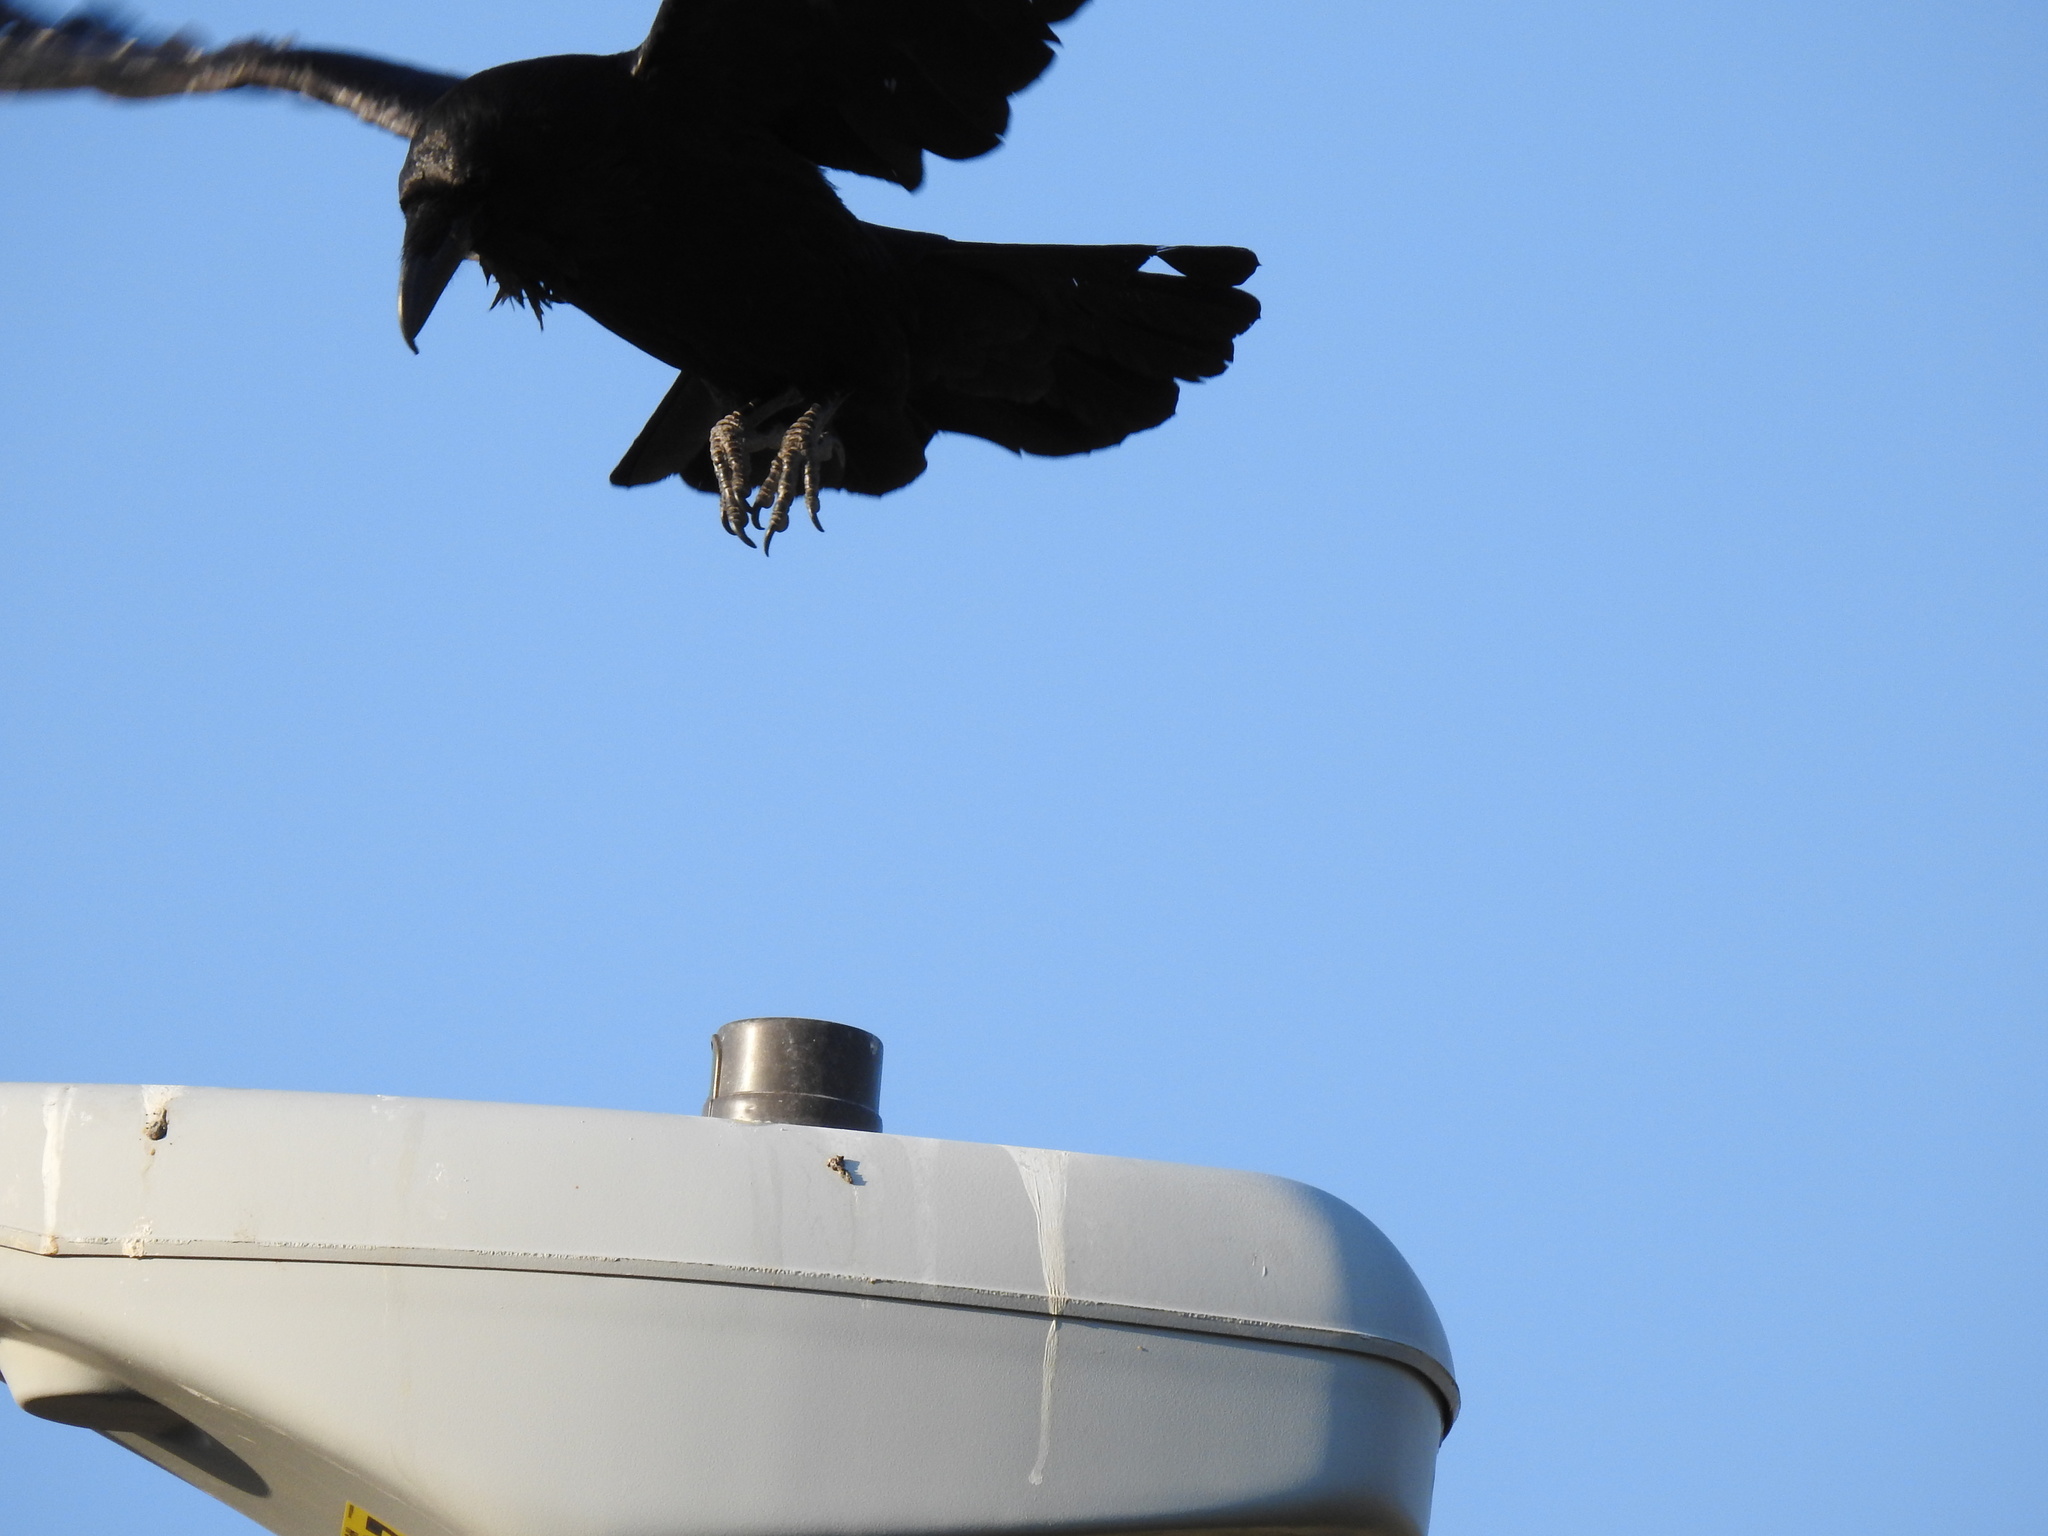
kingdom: Animalia
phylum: Chordata
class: Aves
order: Passeriformes
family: Corvidae
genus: Corvus
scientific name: Corvus corax
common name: Common raven
